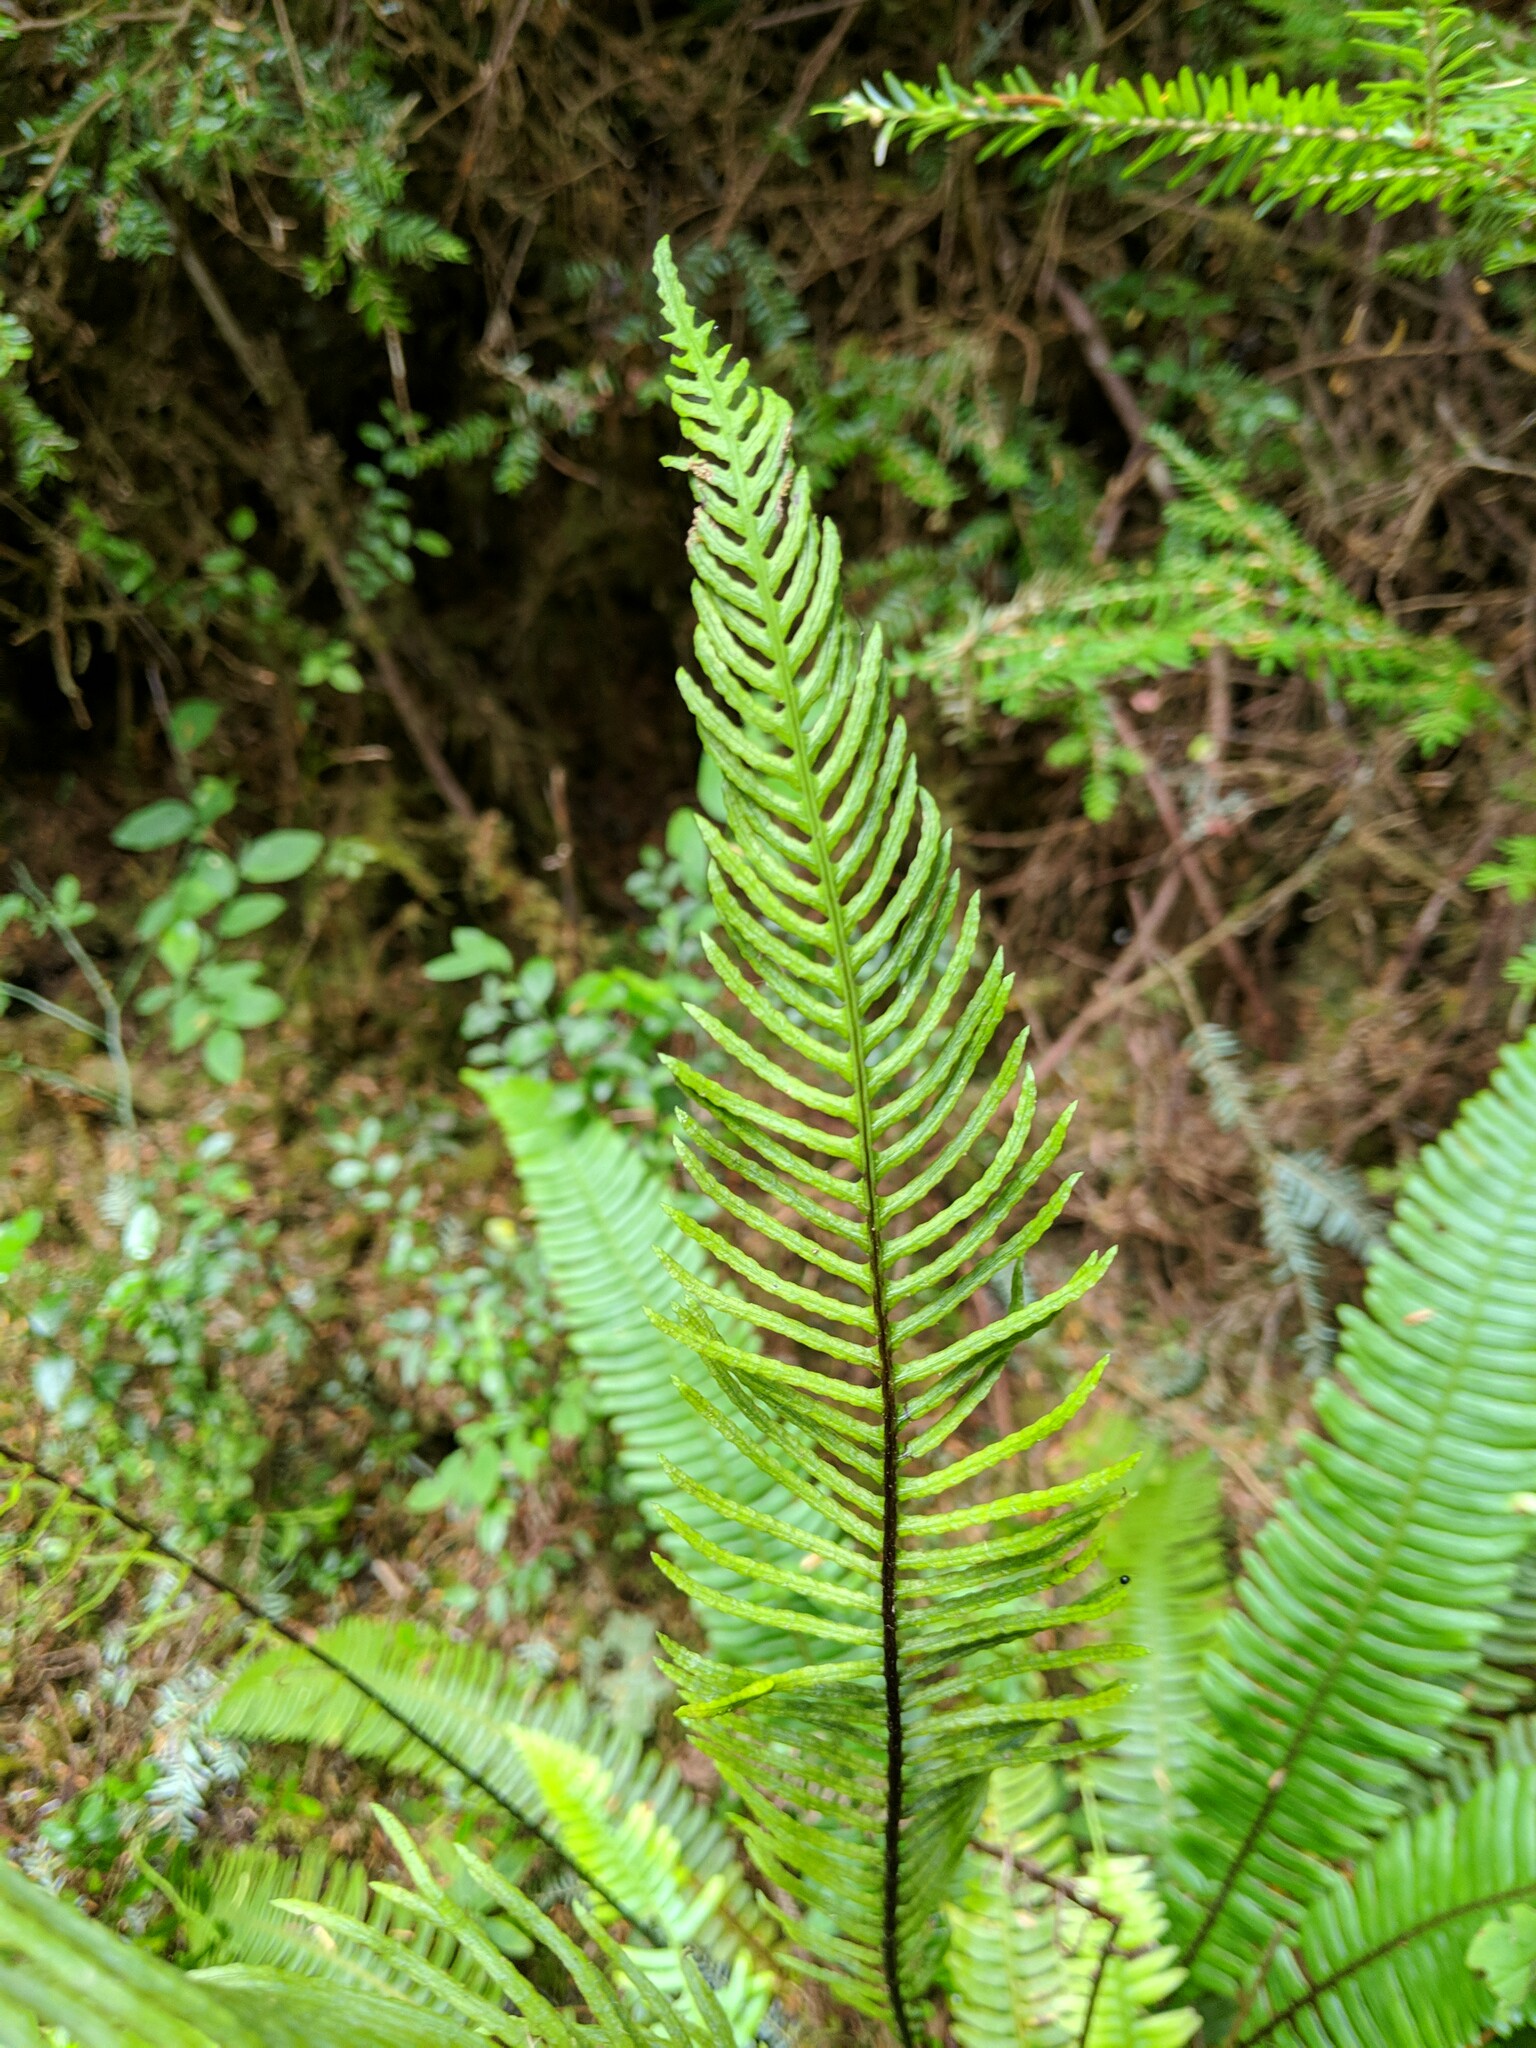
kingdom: Plantae
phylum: Tracheophyta
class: Polypodiopsida
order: Polypodiales
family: Blechnaceae
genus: Struthiopteris
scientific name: Struthiopteris spicant
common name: Deer fern
